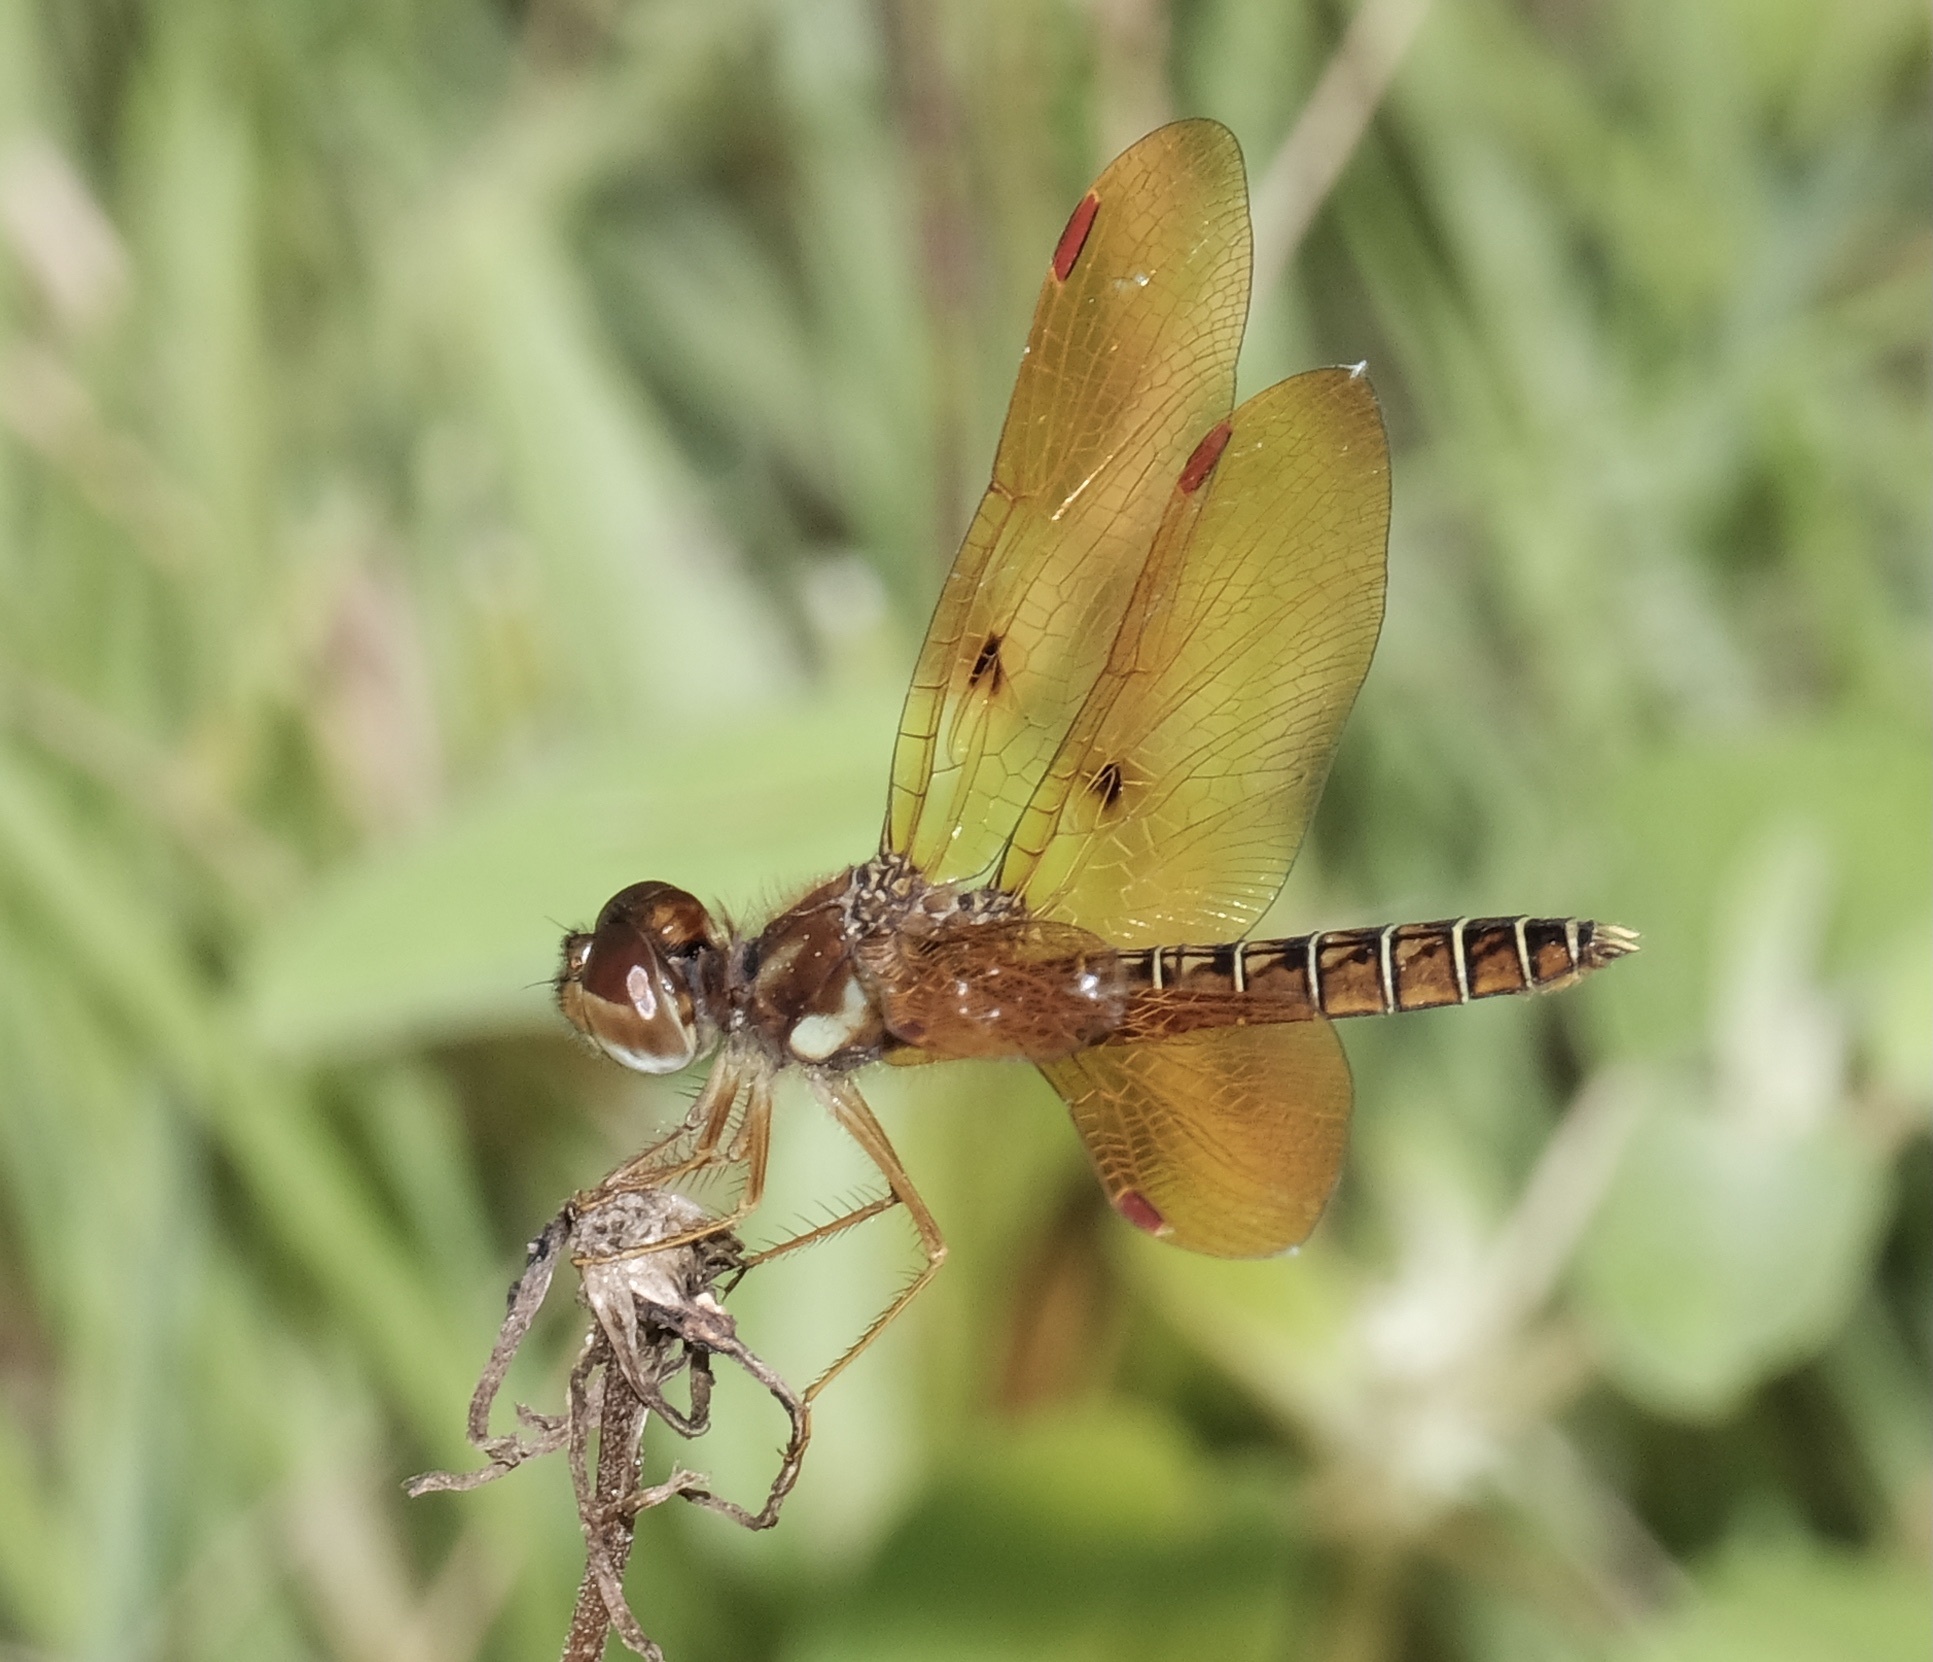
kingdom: Animalia
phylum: Arthropoda
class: Insecta
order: Odonata
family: Libellulidae
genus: Perithemis
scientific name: Perithemis tenera
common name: Eastern amberwing
